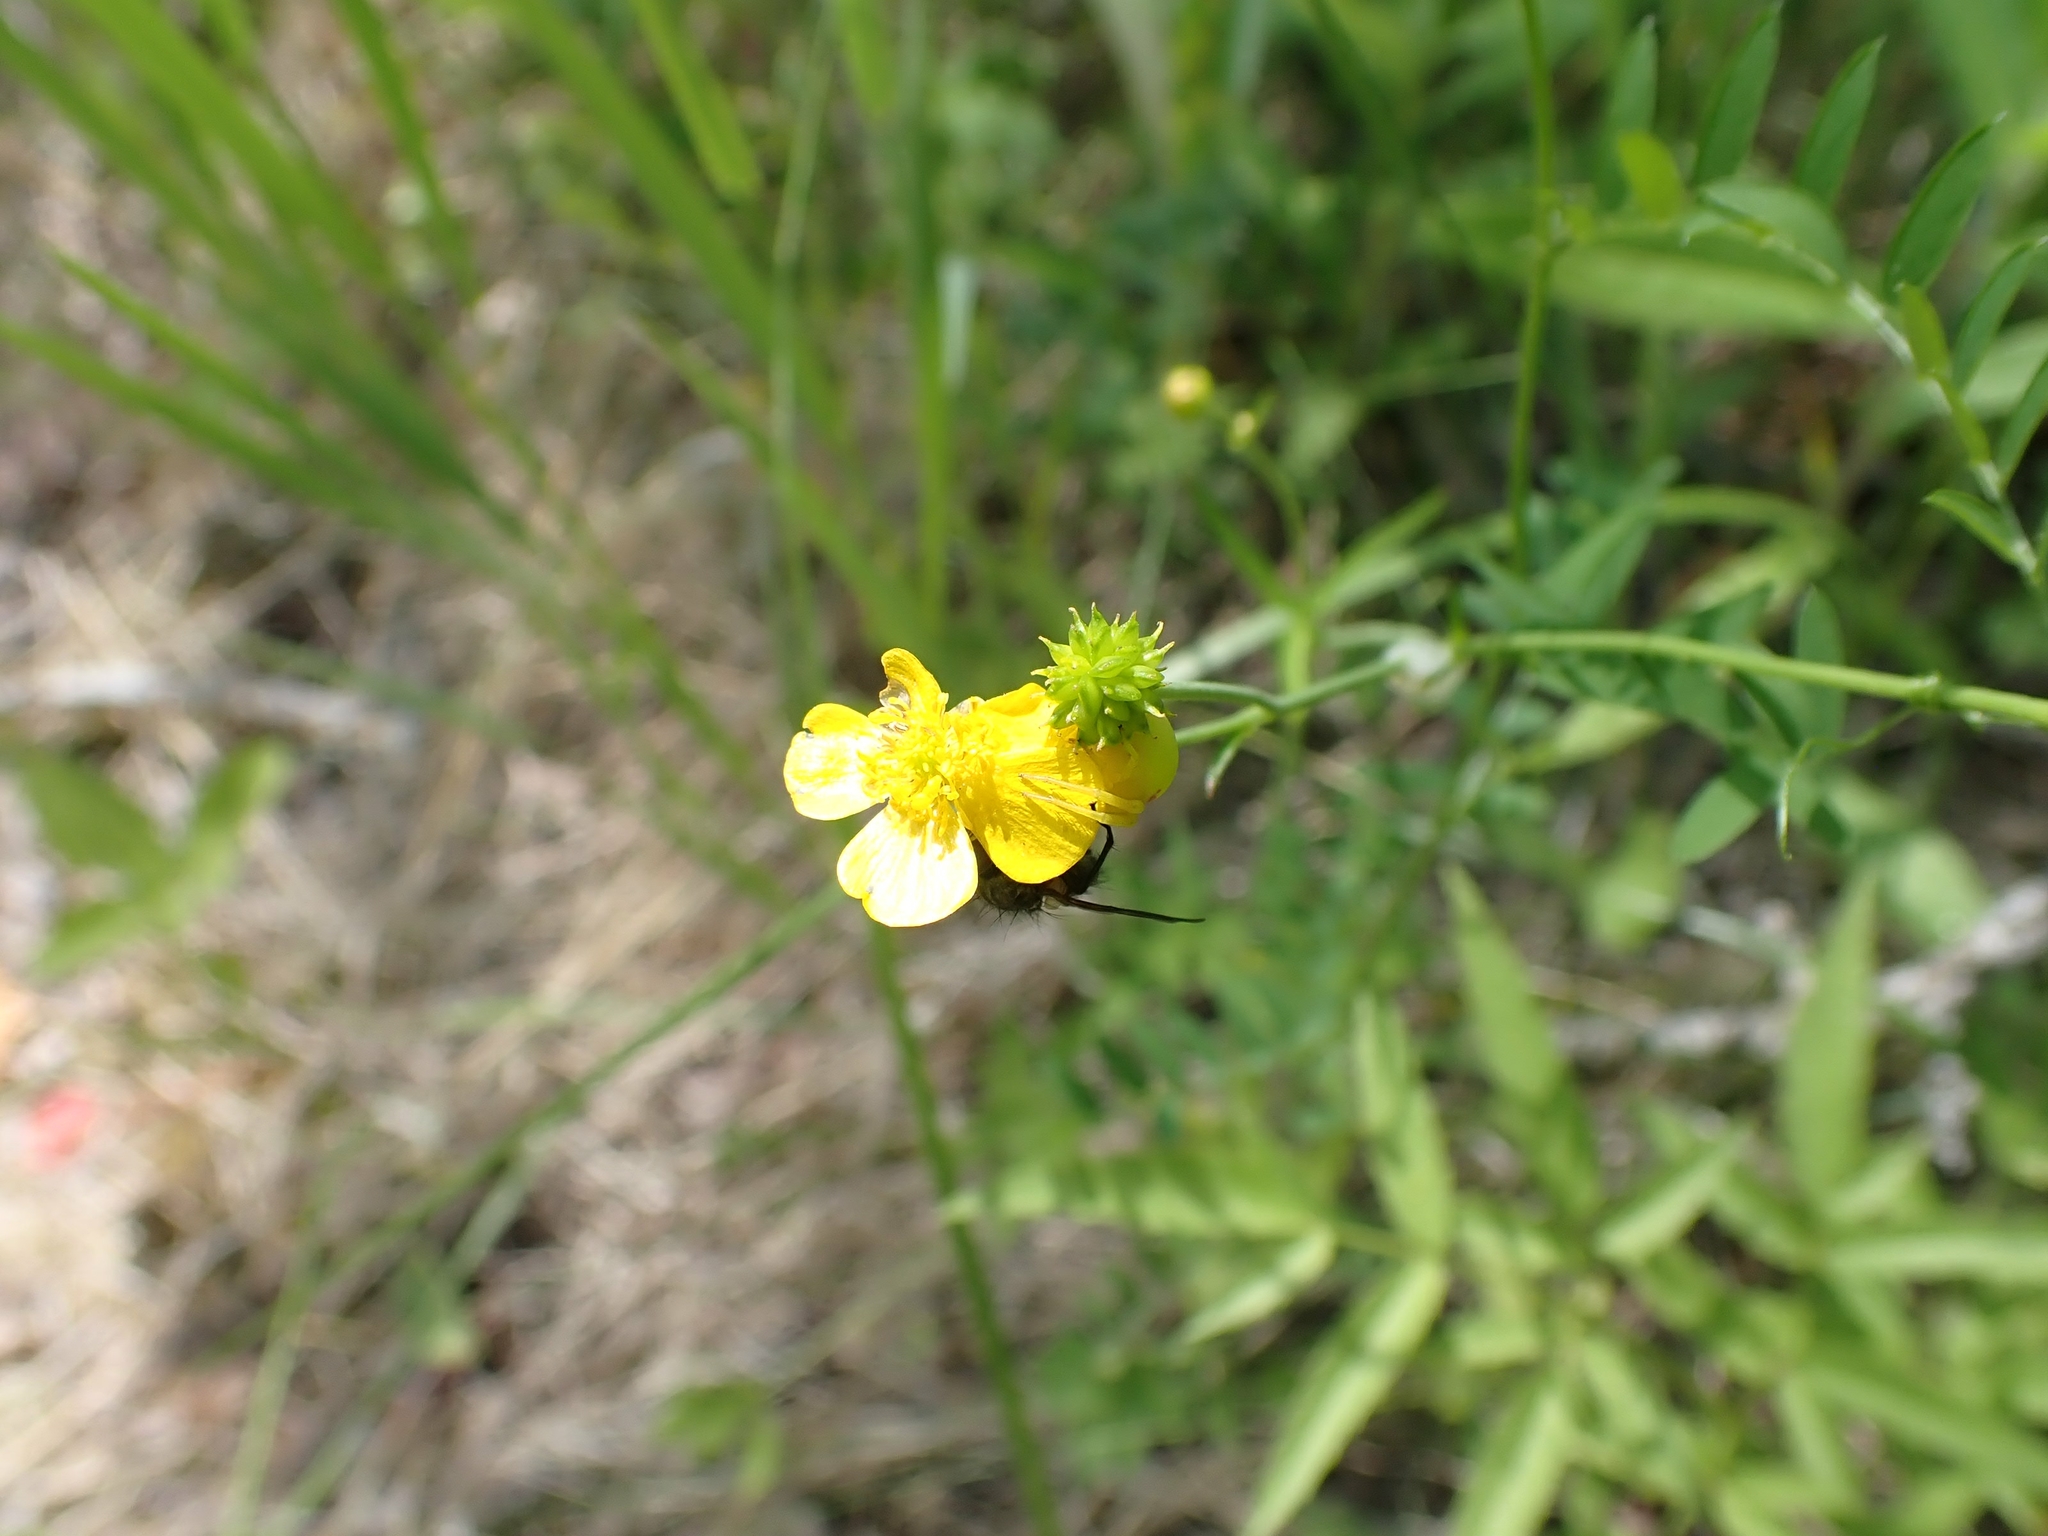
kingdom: Plantae
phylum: Tracheophyta
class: Magnoliopsida
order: Ranunculales
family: Ranunculaceae
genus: Ranunculus
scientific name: Ranunculus acris
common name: Meadow buttercup
